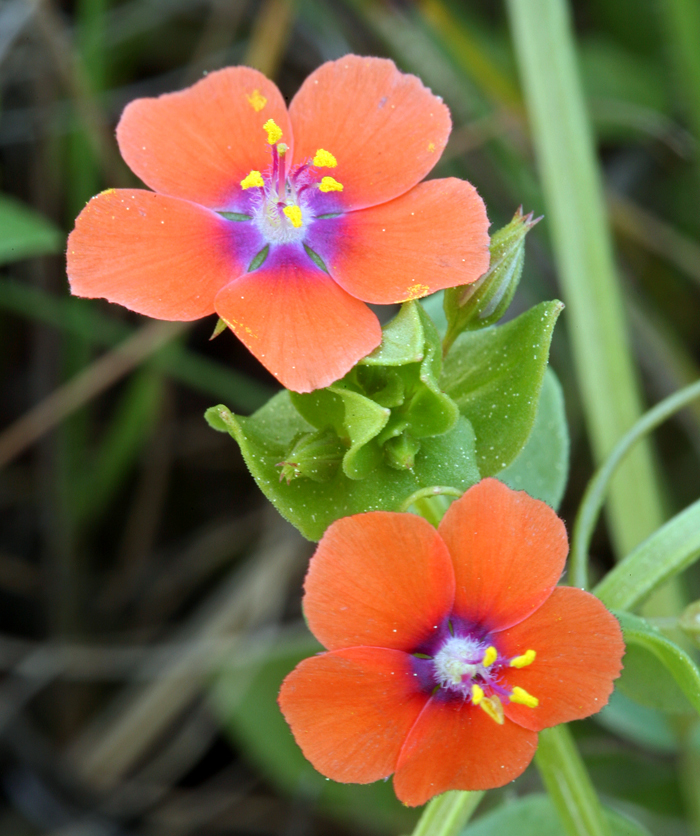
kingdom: Plantae
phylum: Tracheophyta
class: Magnoliopsida
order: Ericales
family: Primulaceae
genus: Lysimachia
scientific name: Lysimachia arvensis
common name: Scarlet pimpernel
